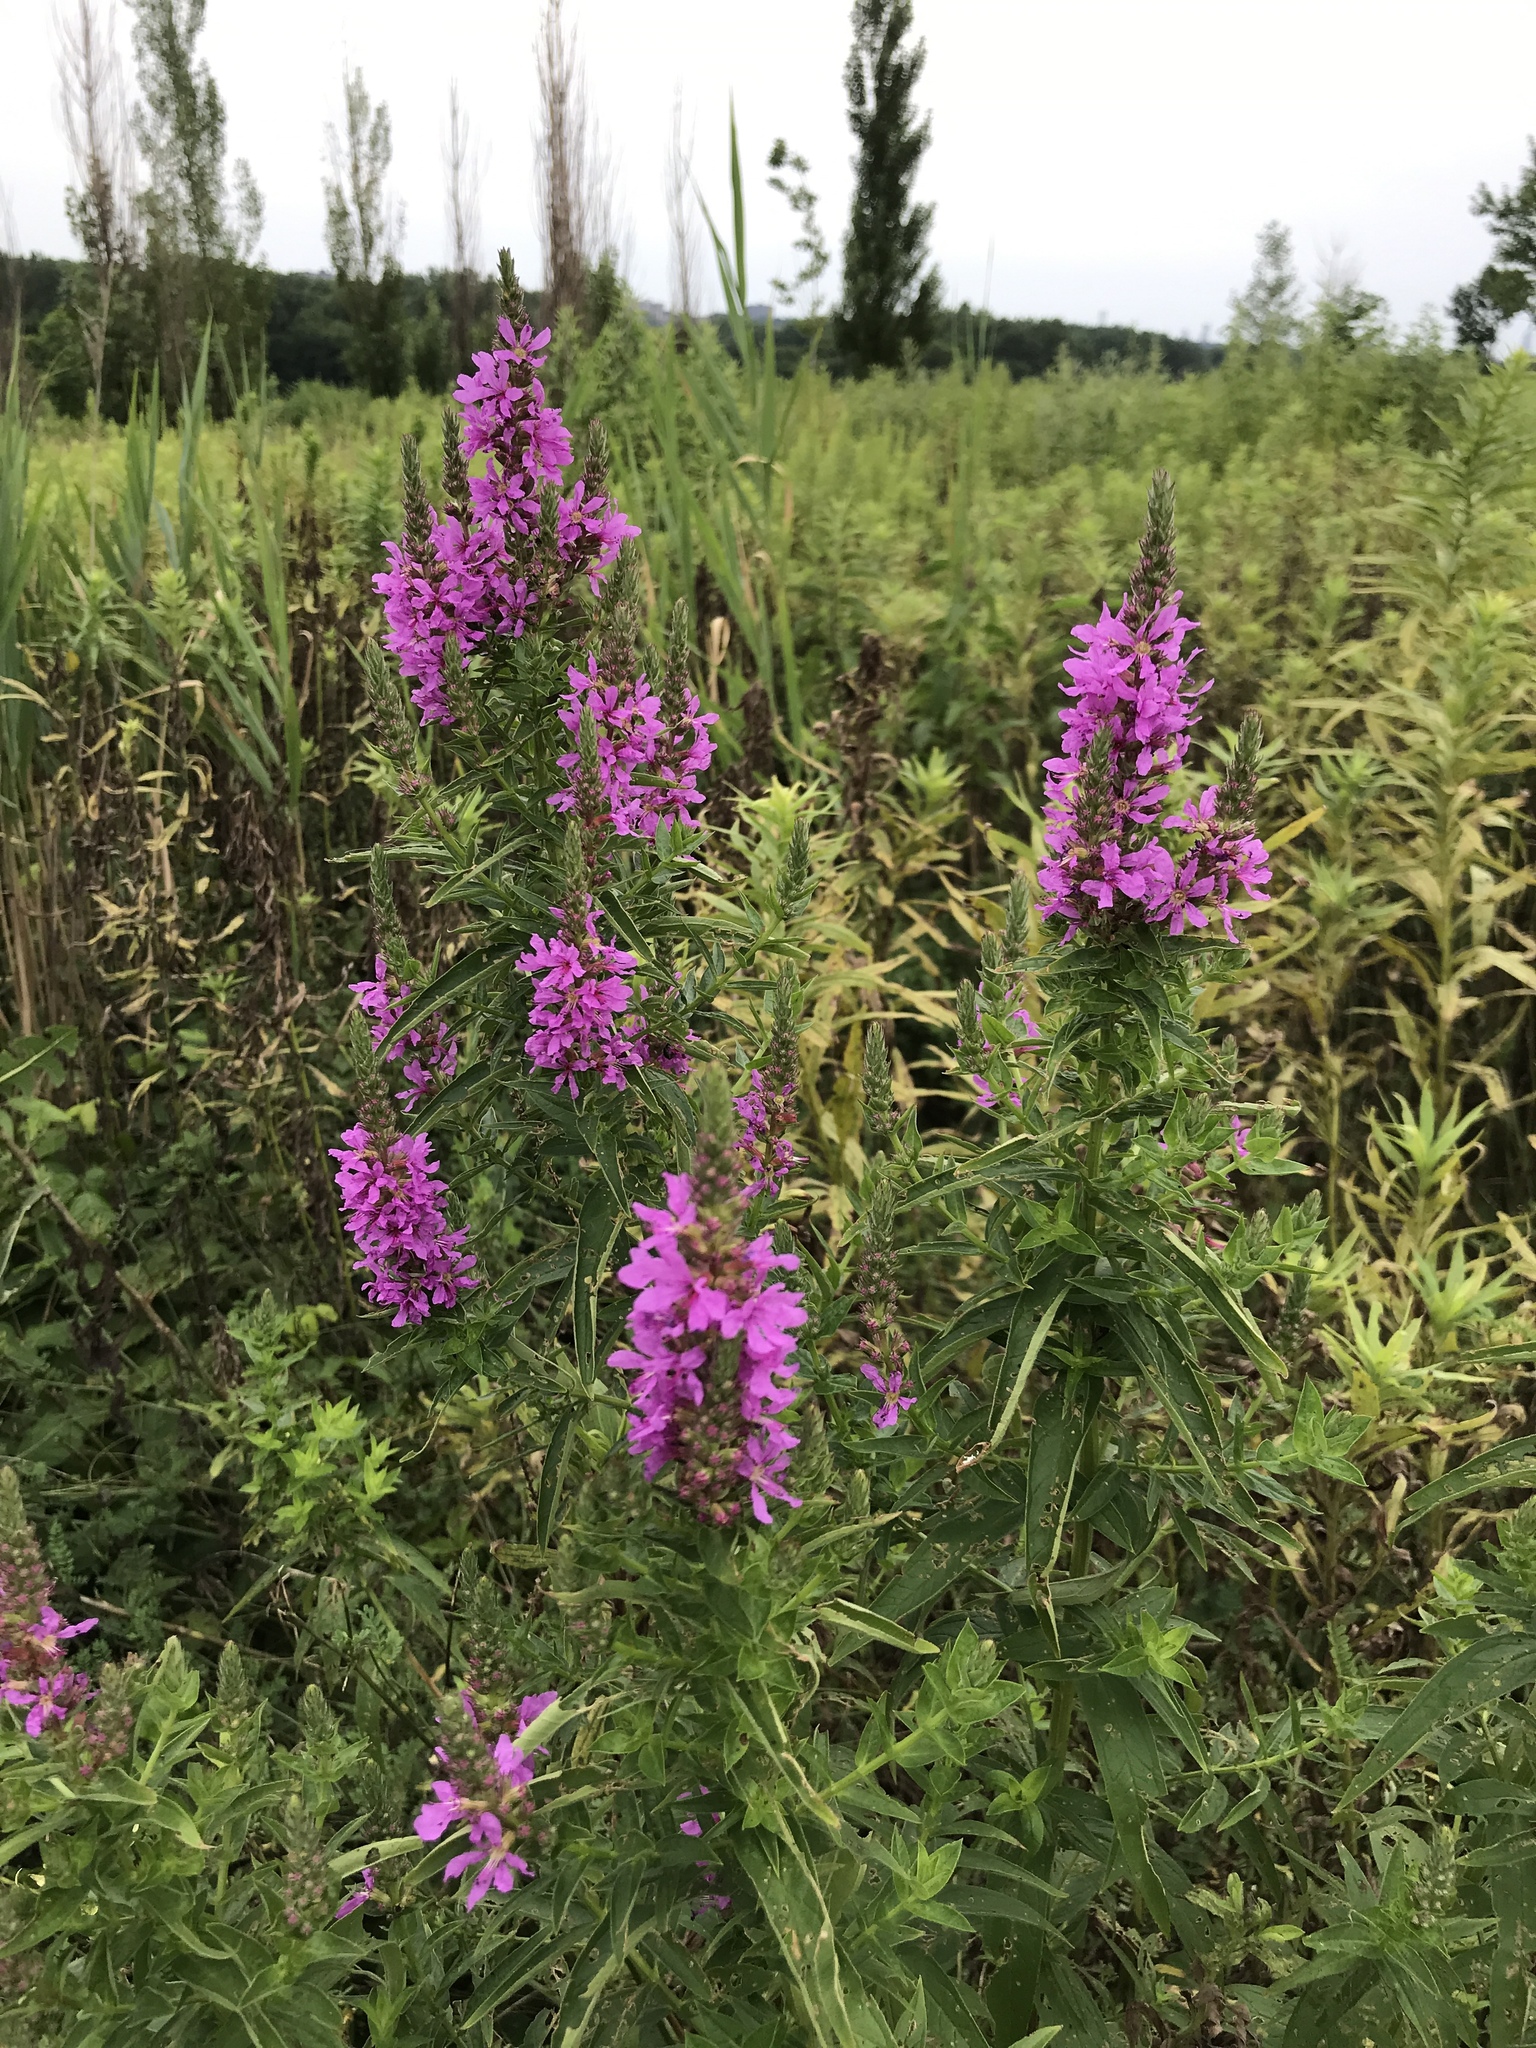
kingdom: Plantae
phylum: Tracheophyta
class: Magnoliopsida
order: Myrtales
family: Lythraceae
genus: Lythrum
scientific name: Lythrum salicaria
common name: Purple loosestrife
